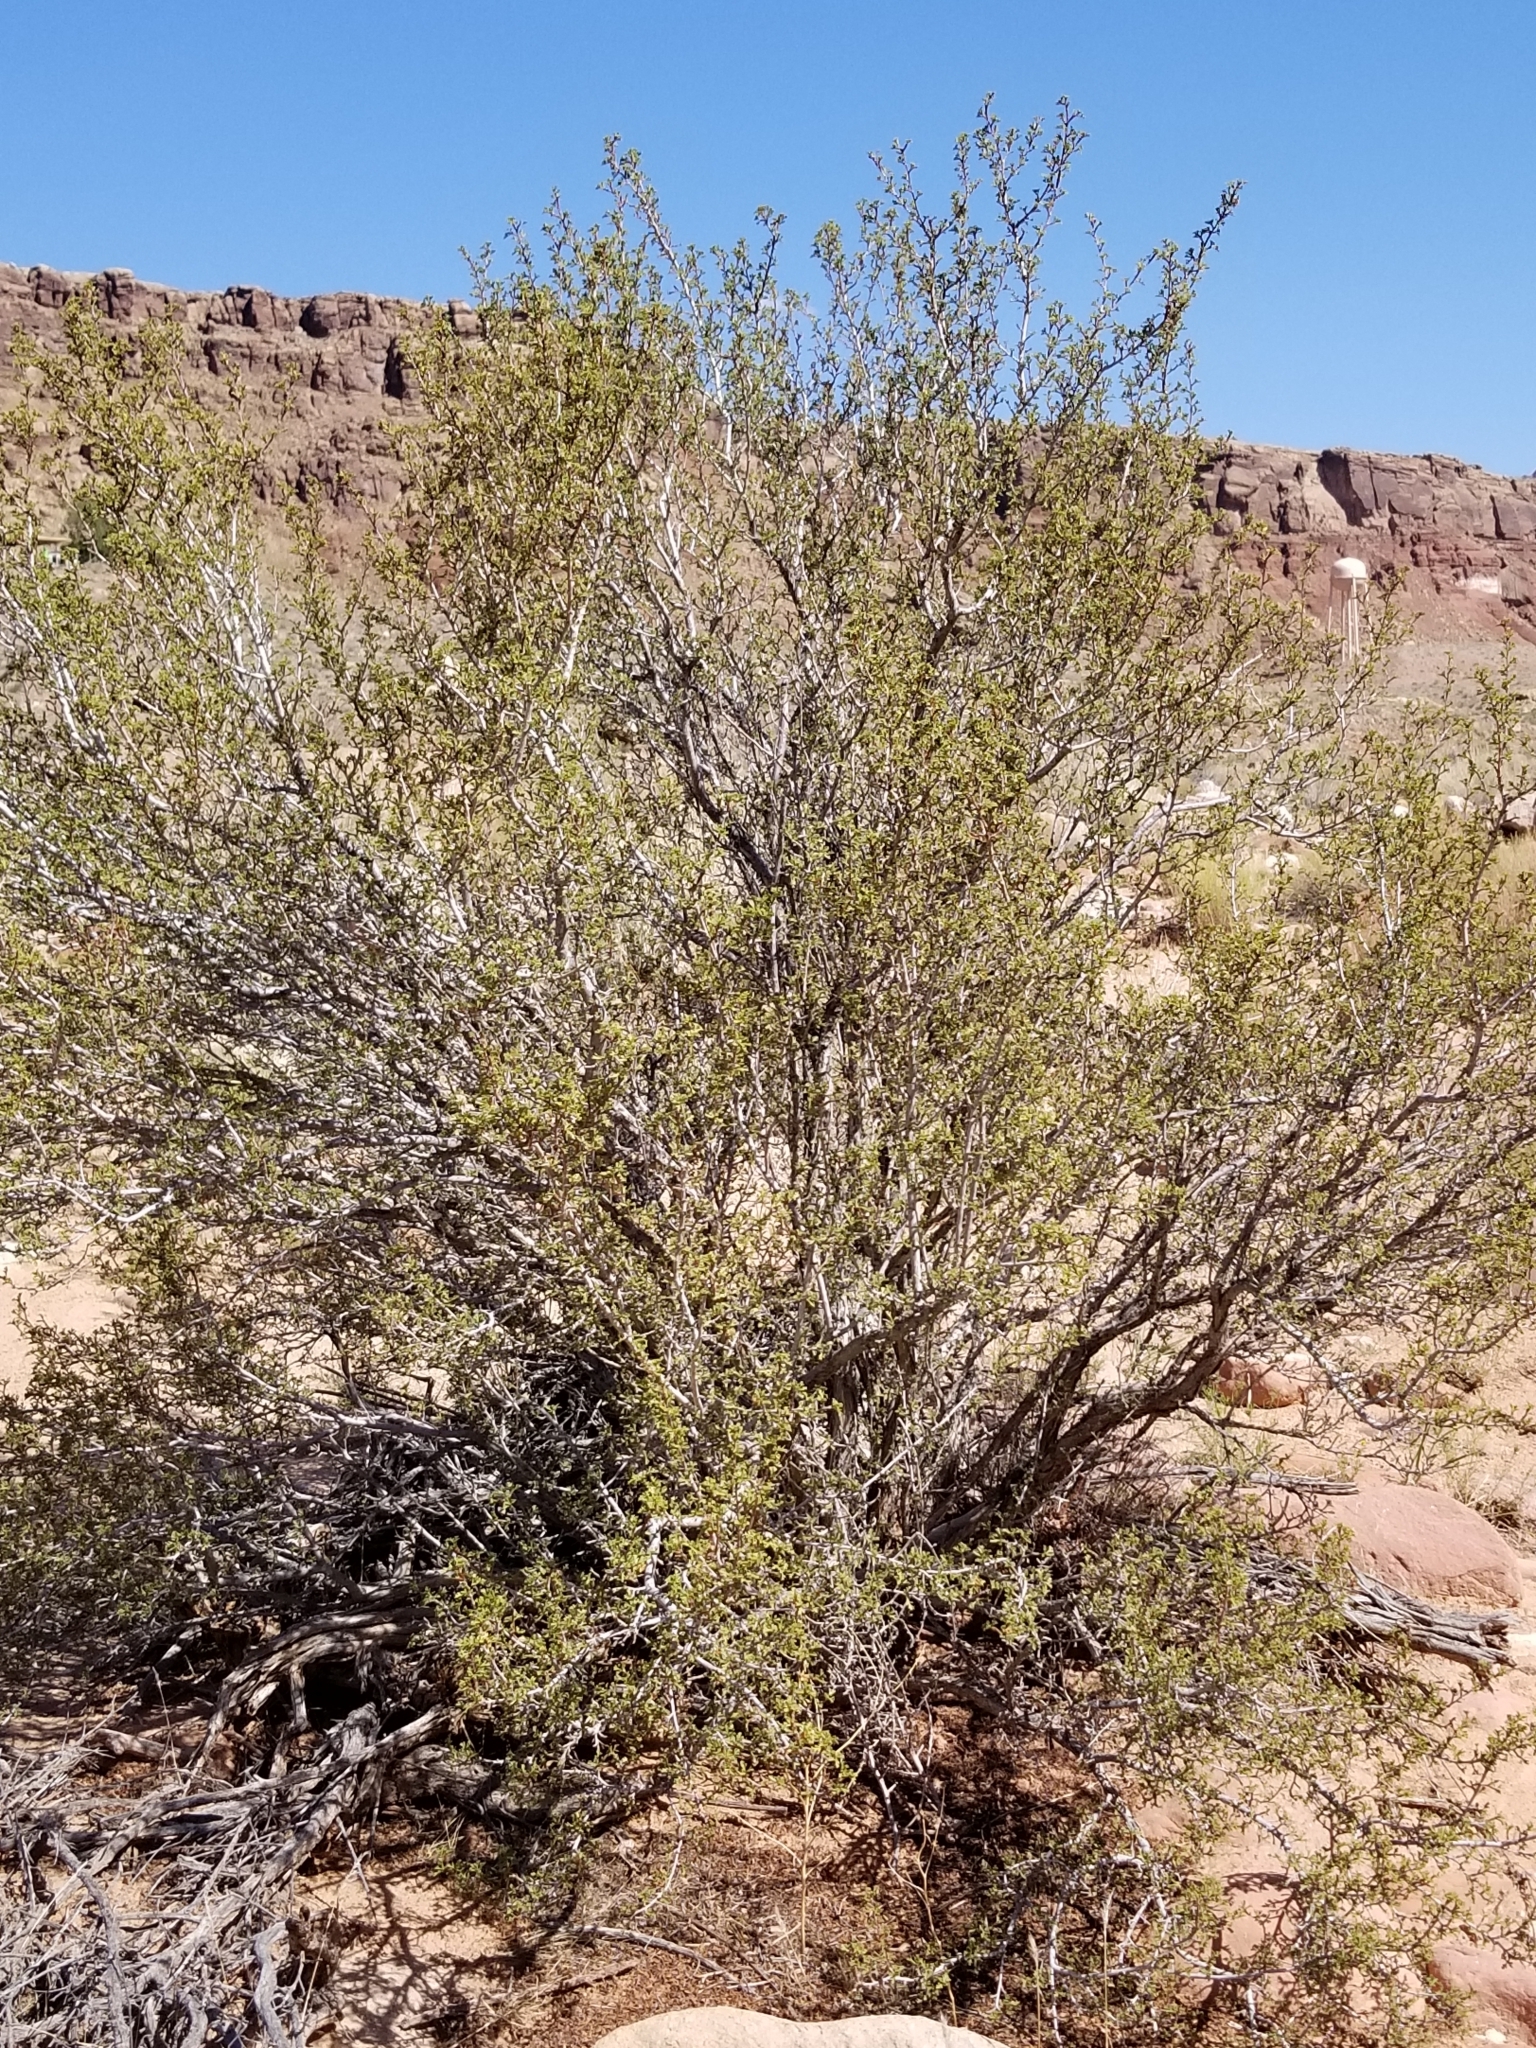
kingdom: Plantae
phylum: Tracheophyta
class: Magnoliopsida
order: Rosales
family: Rosaceae
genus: Purshia
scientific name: Purshia stansburiana
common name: Stansbury's cliffrose
